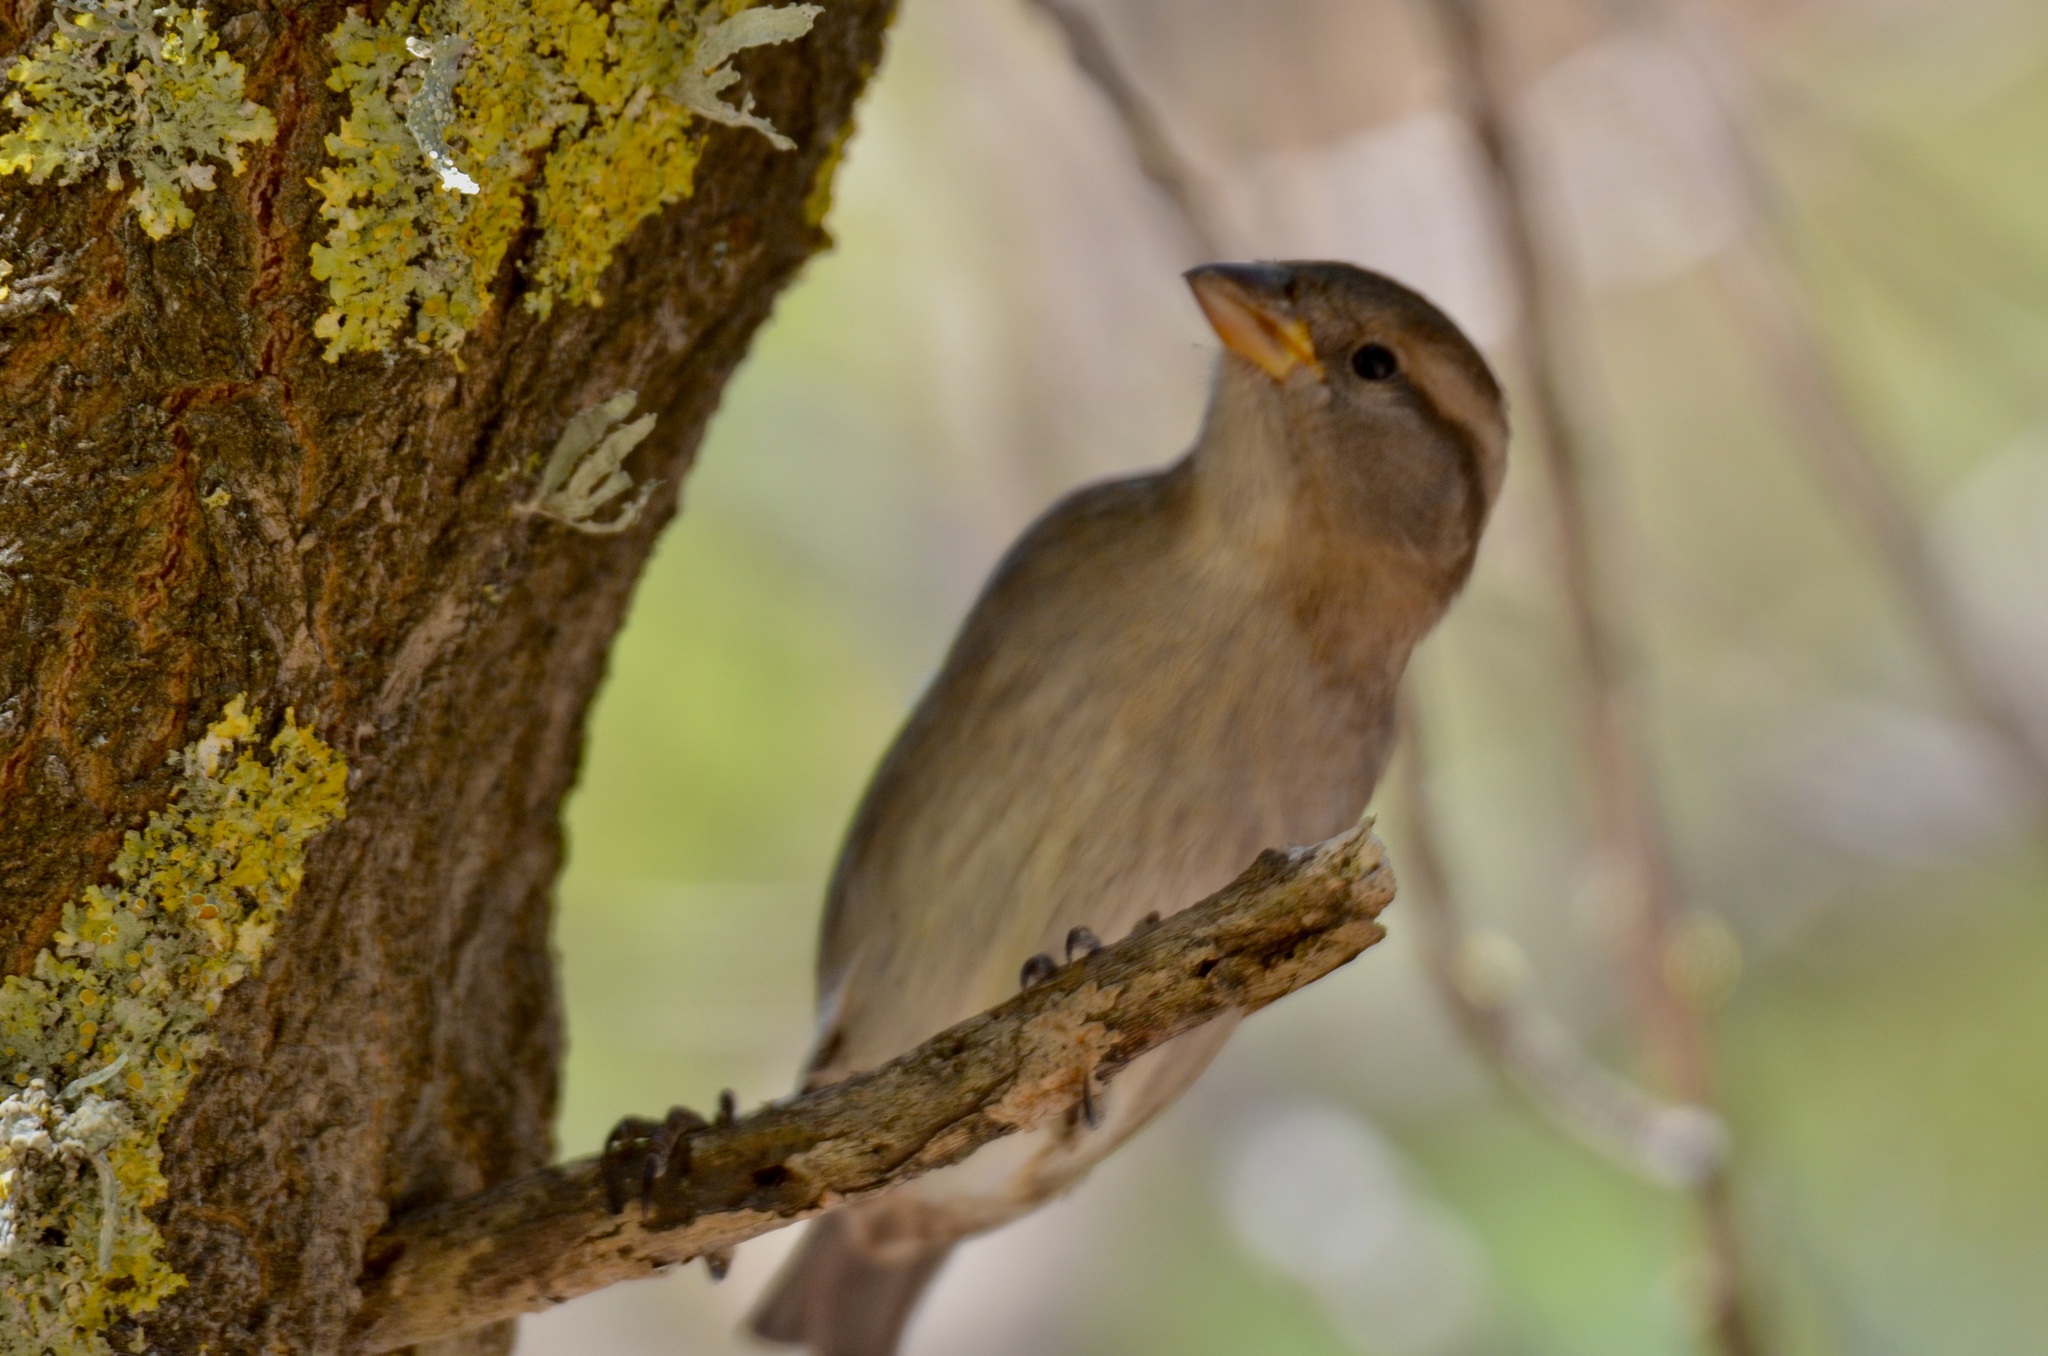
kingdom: Animalia
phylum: Chordata
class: Aves
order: Passeriformes
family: Passeridae
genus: Passer
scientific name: Passer domesticus
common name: House sparrow
